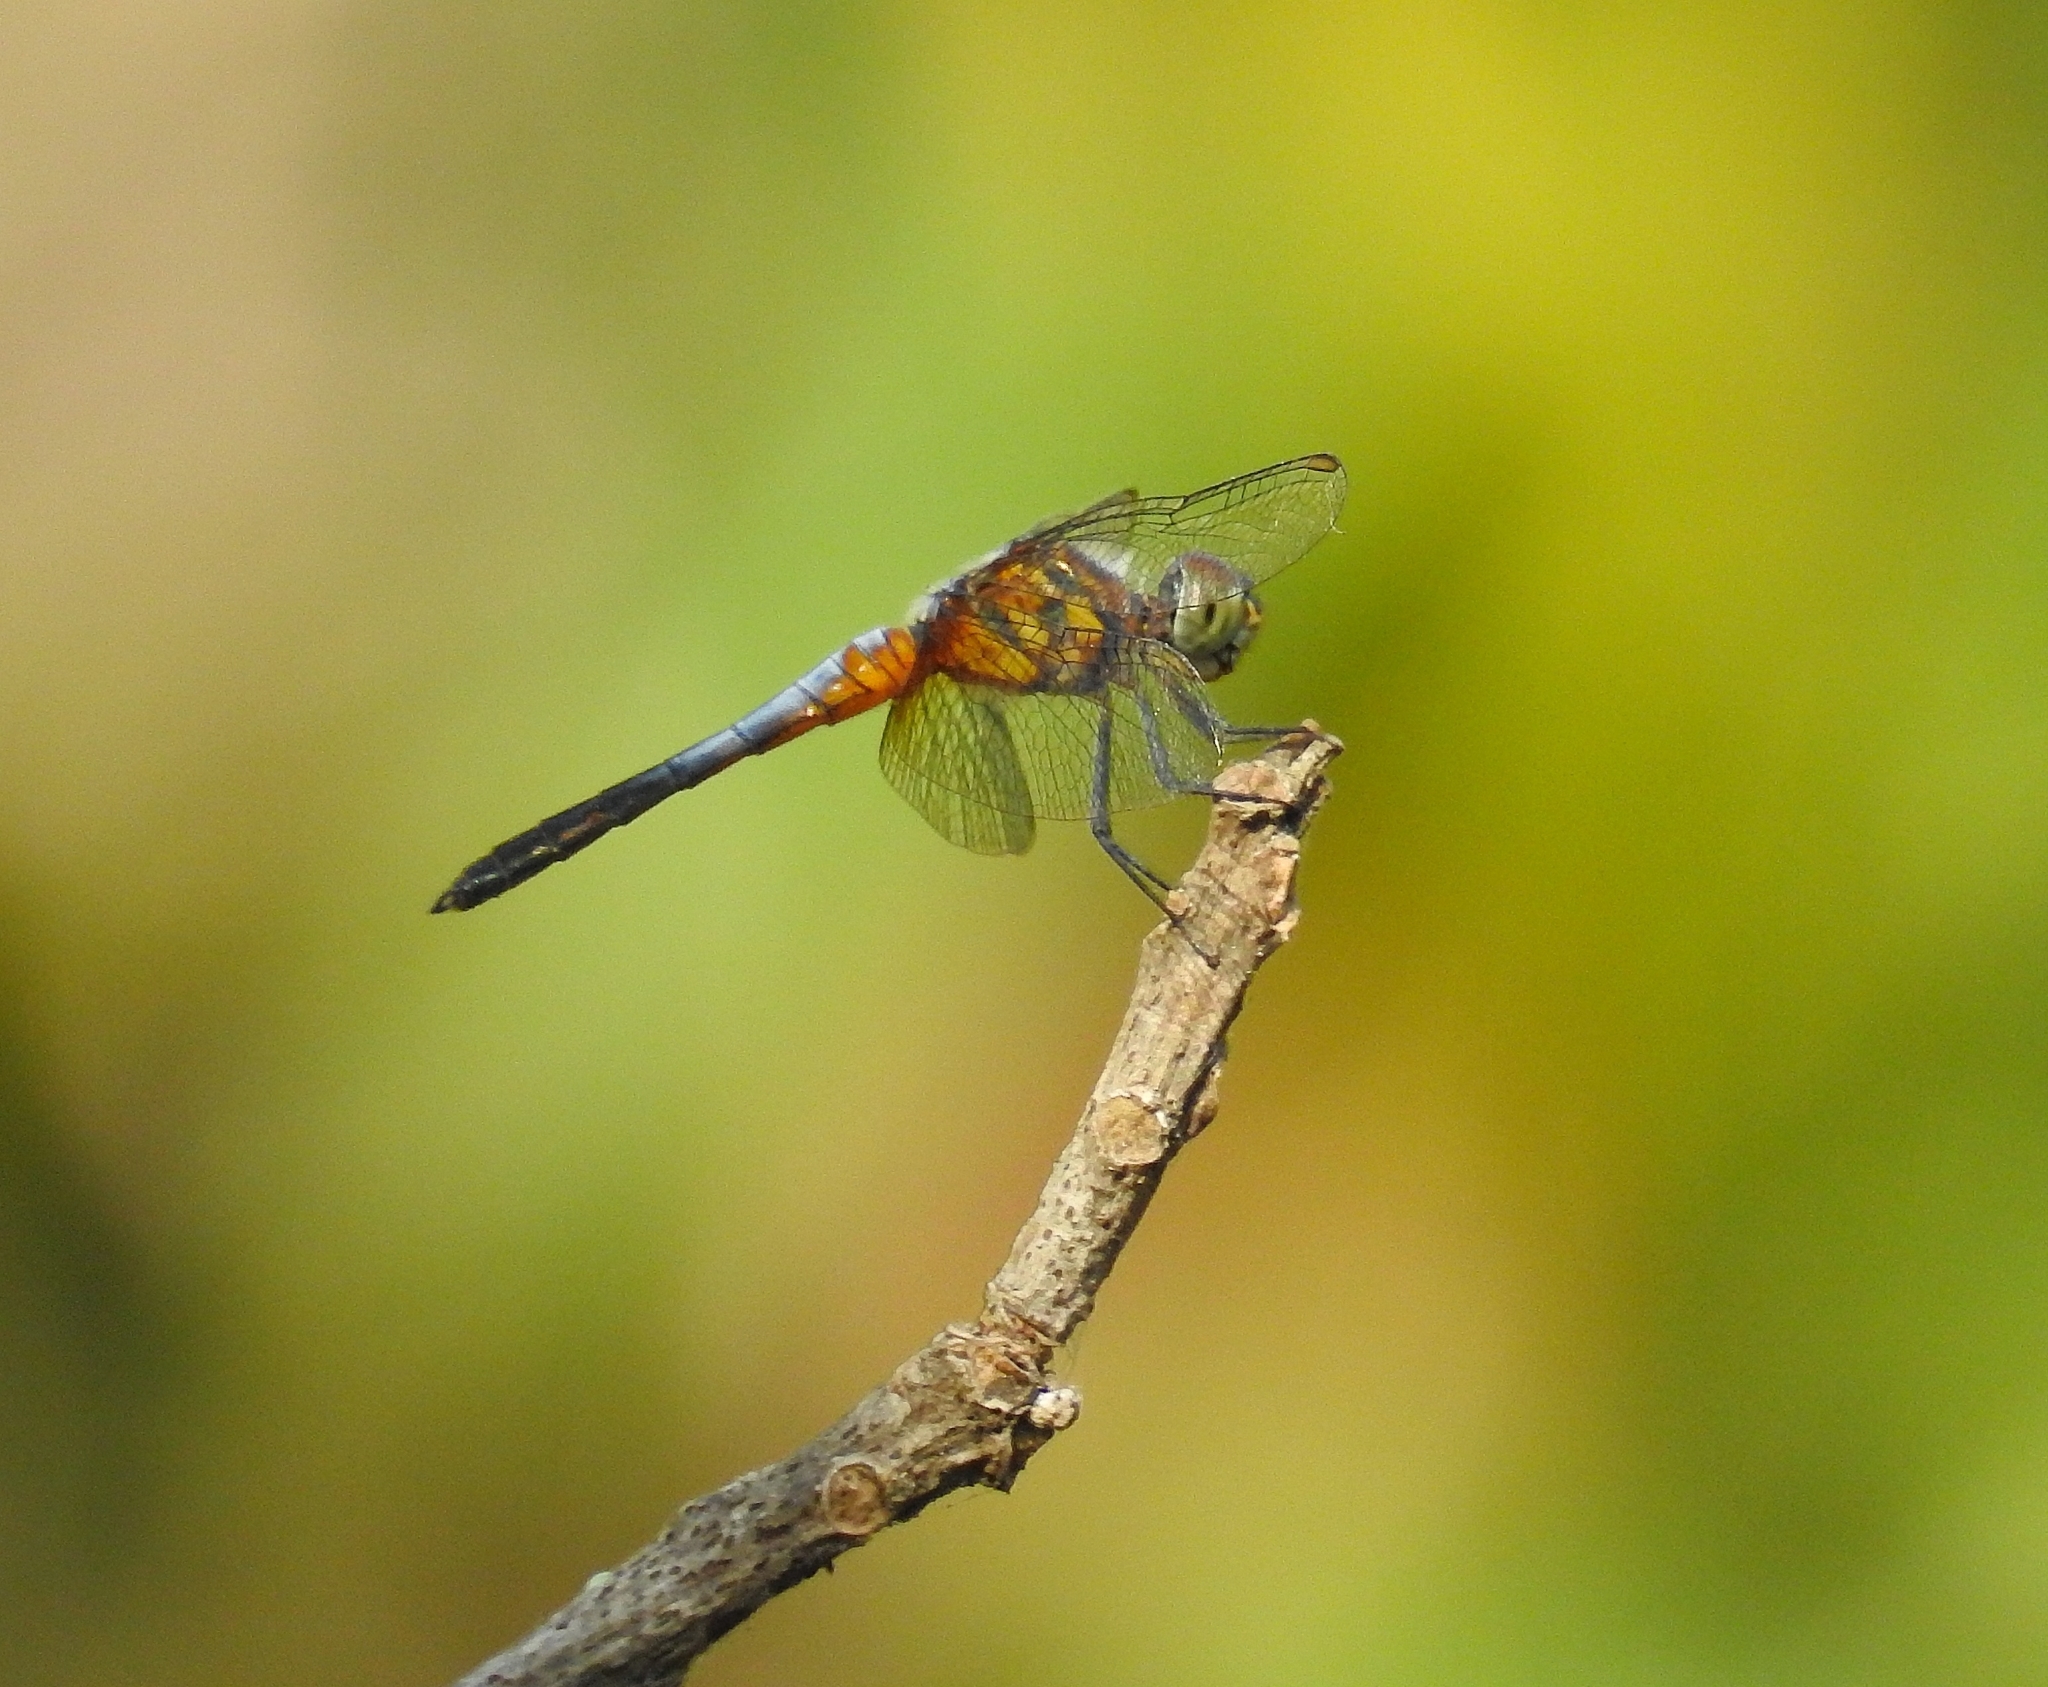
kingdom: Animalia
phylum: Arthropoda
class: Insecta
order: Odonata
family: Libellulidae
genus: Brachydiplax
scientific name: Brachydiplax chalybea
